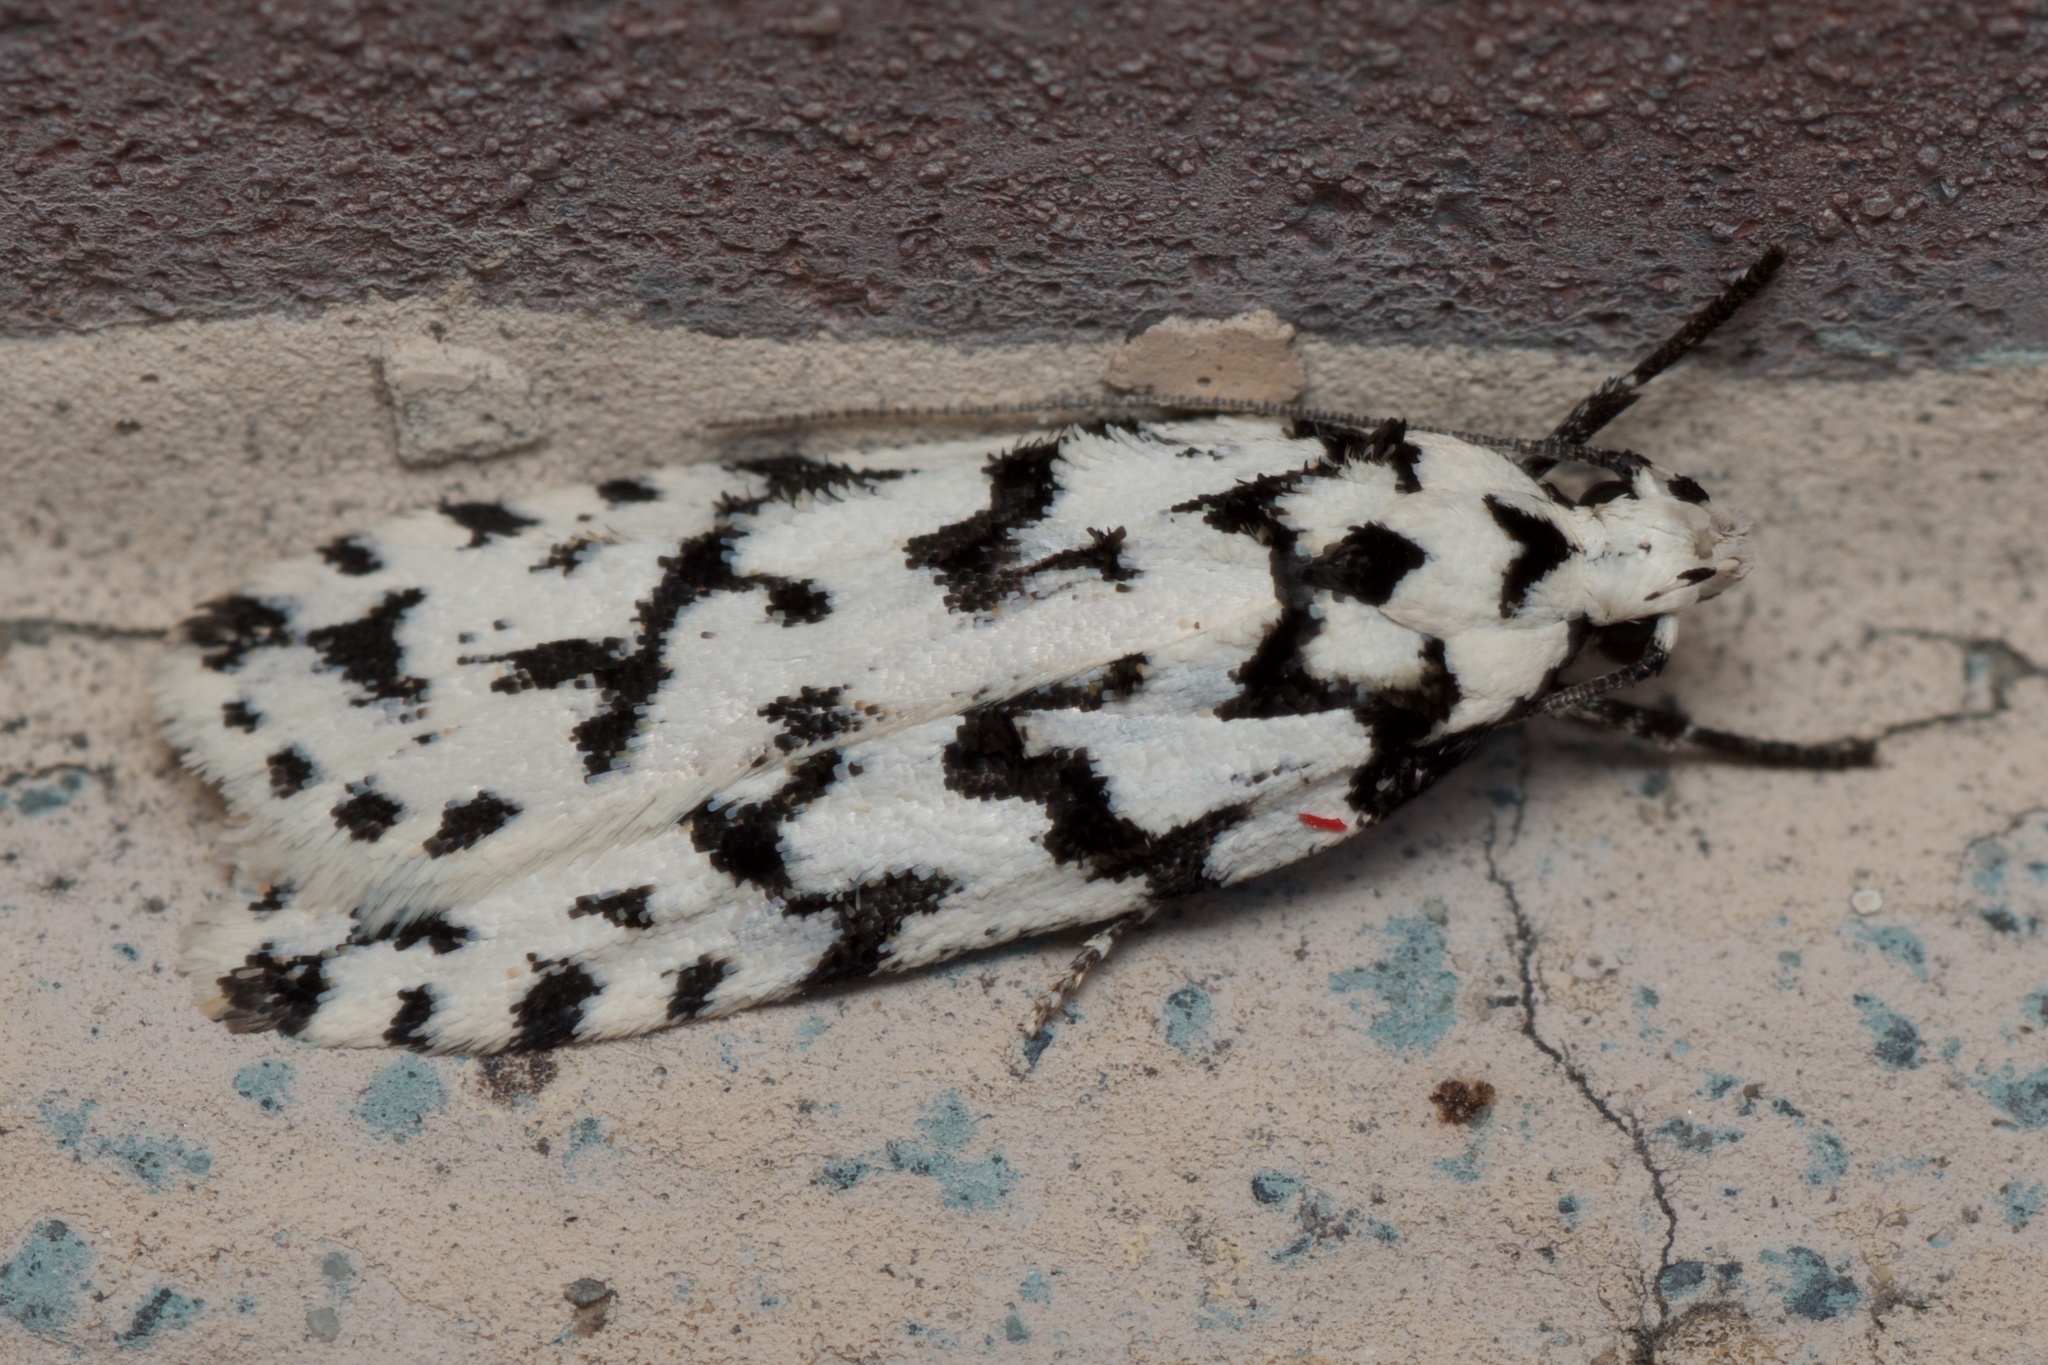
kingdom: Animalia
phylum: Arthropoda
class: Insecta
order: Lepidoptera
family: Oecophoridae
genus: Izatha
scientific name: Izatha katadiktya
